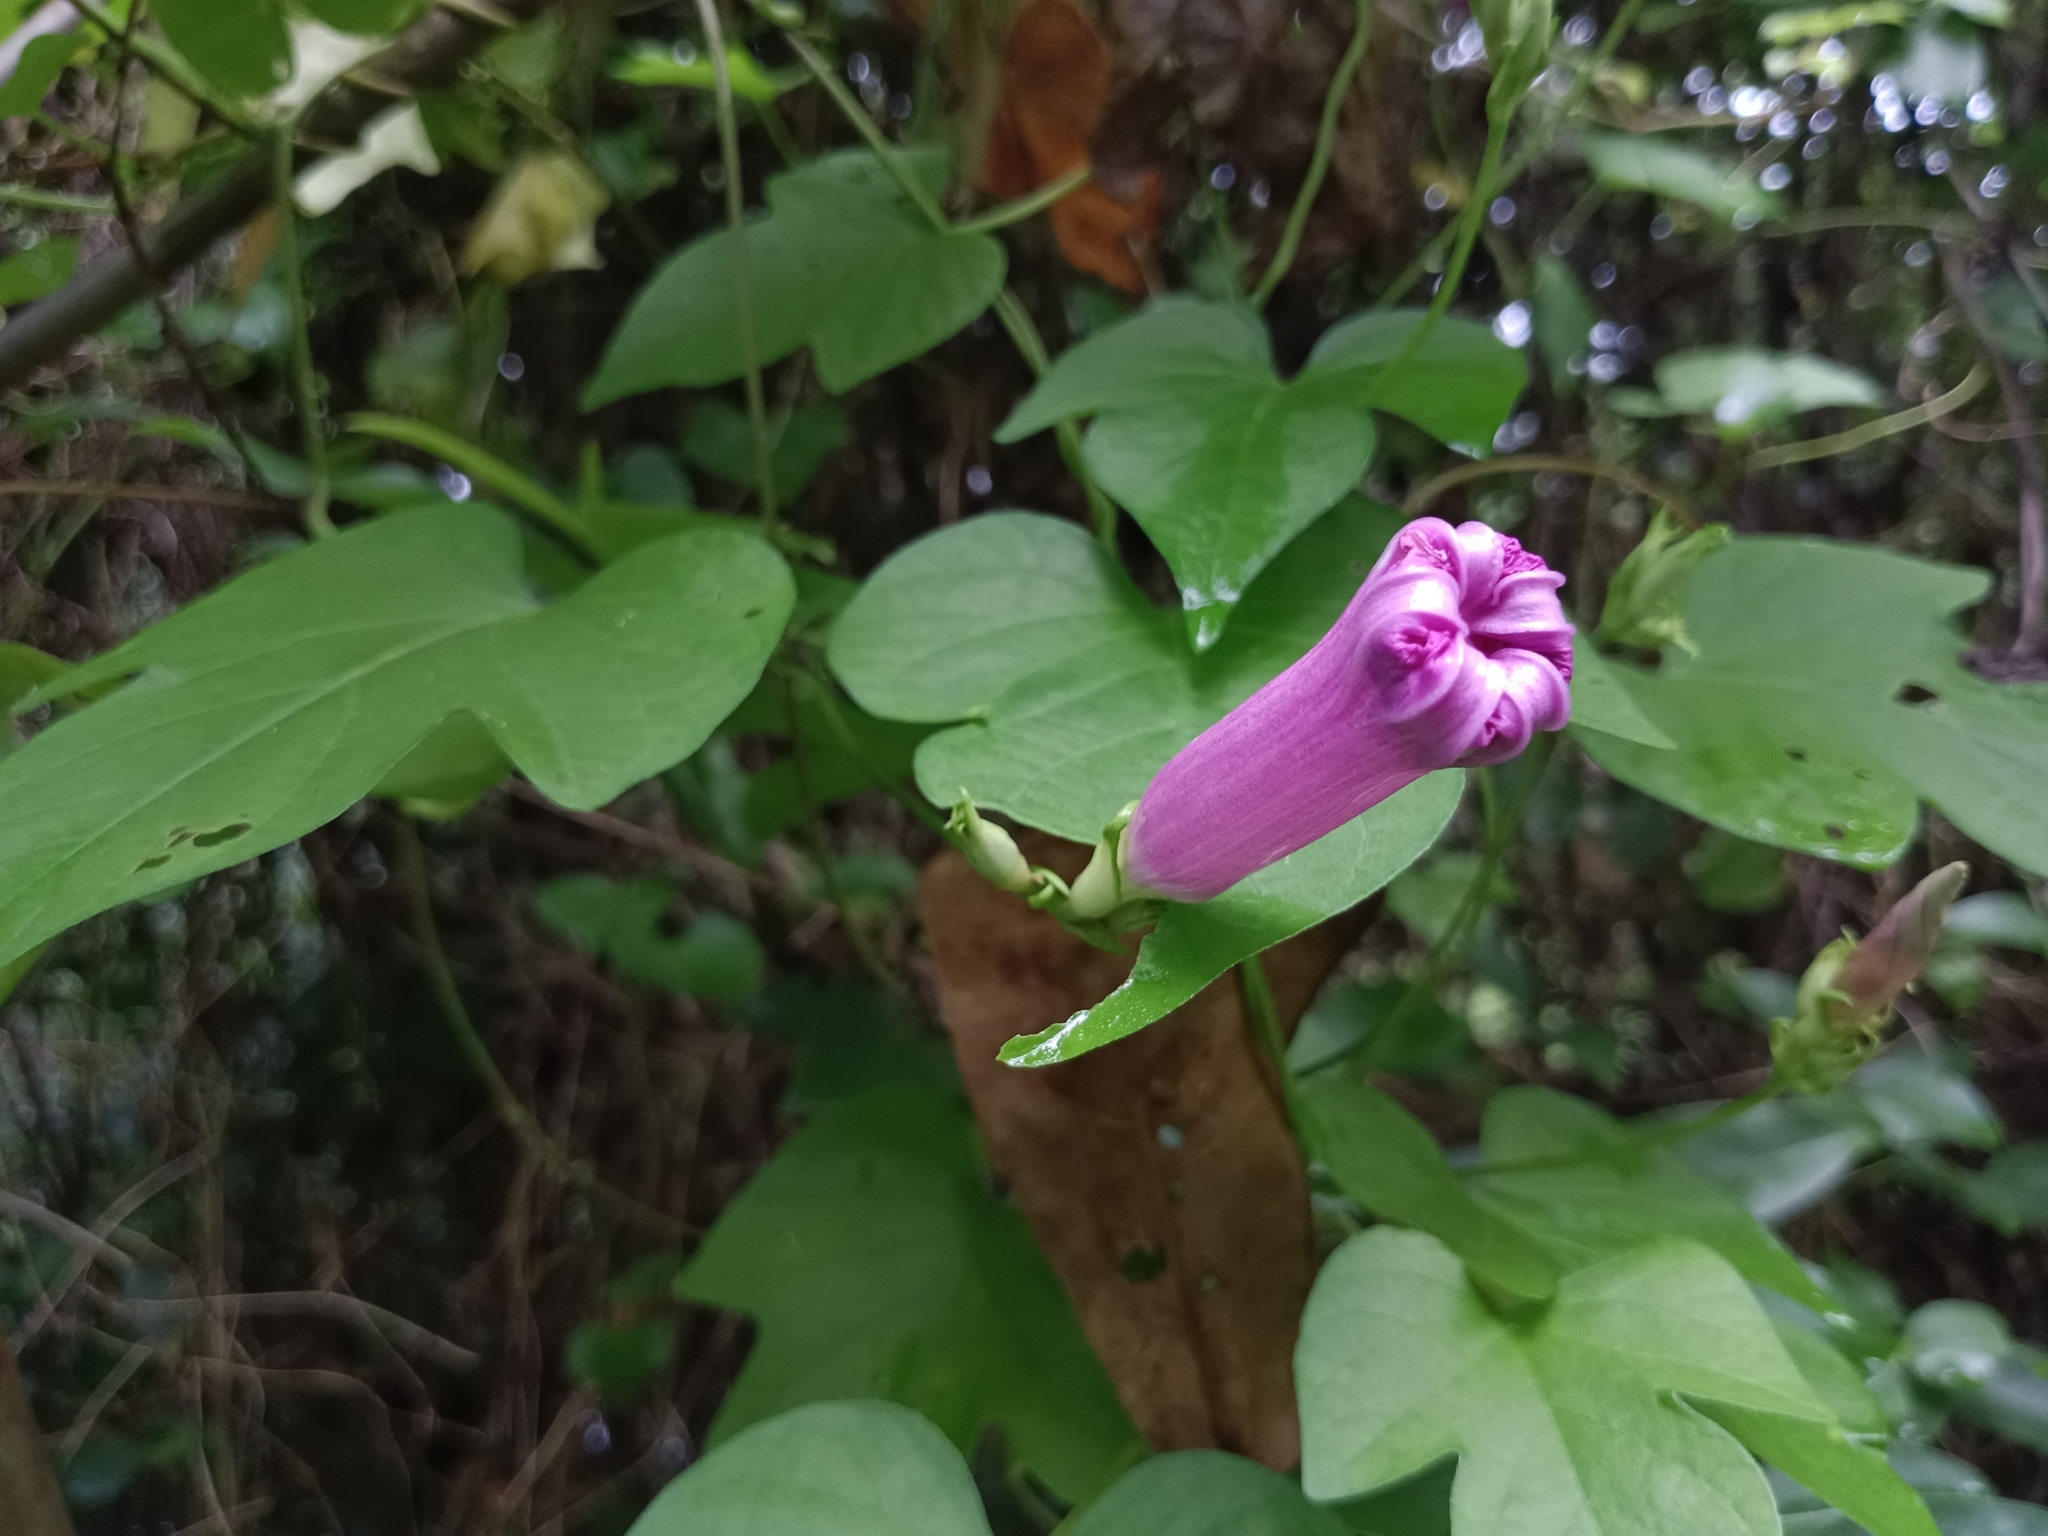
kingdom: Plantae
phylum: Tracheophyta
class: Magnoliopsida
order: Solanales
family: Convolvulaceae
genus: Ipomoea
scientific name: Ipomoea indica
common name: Blue dawnflower
